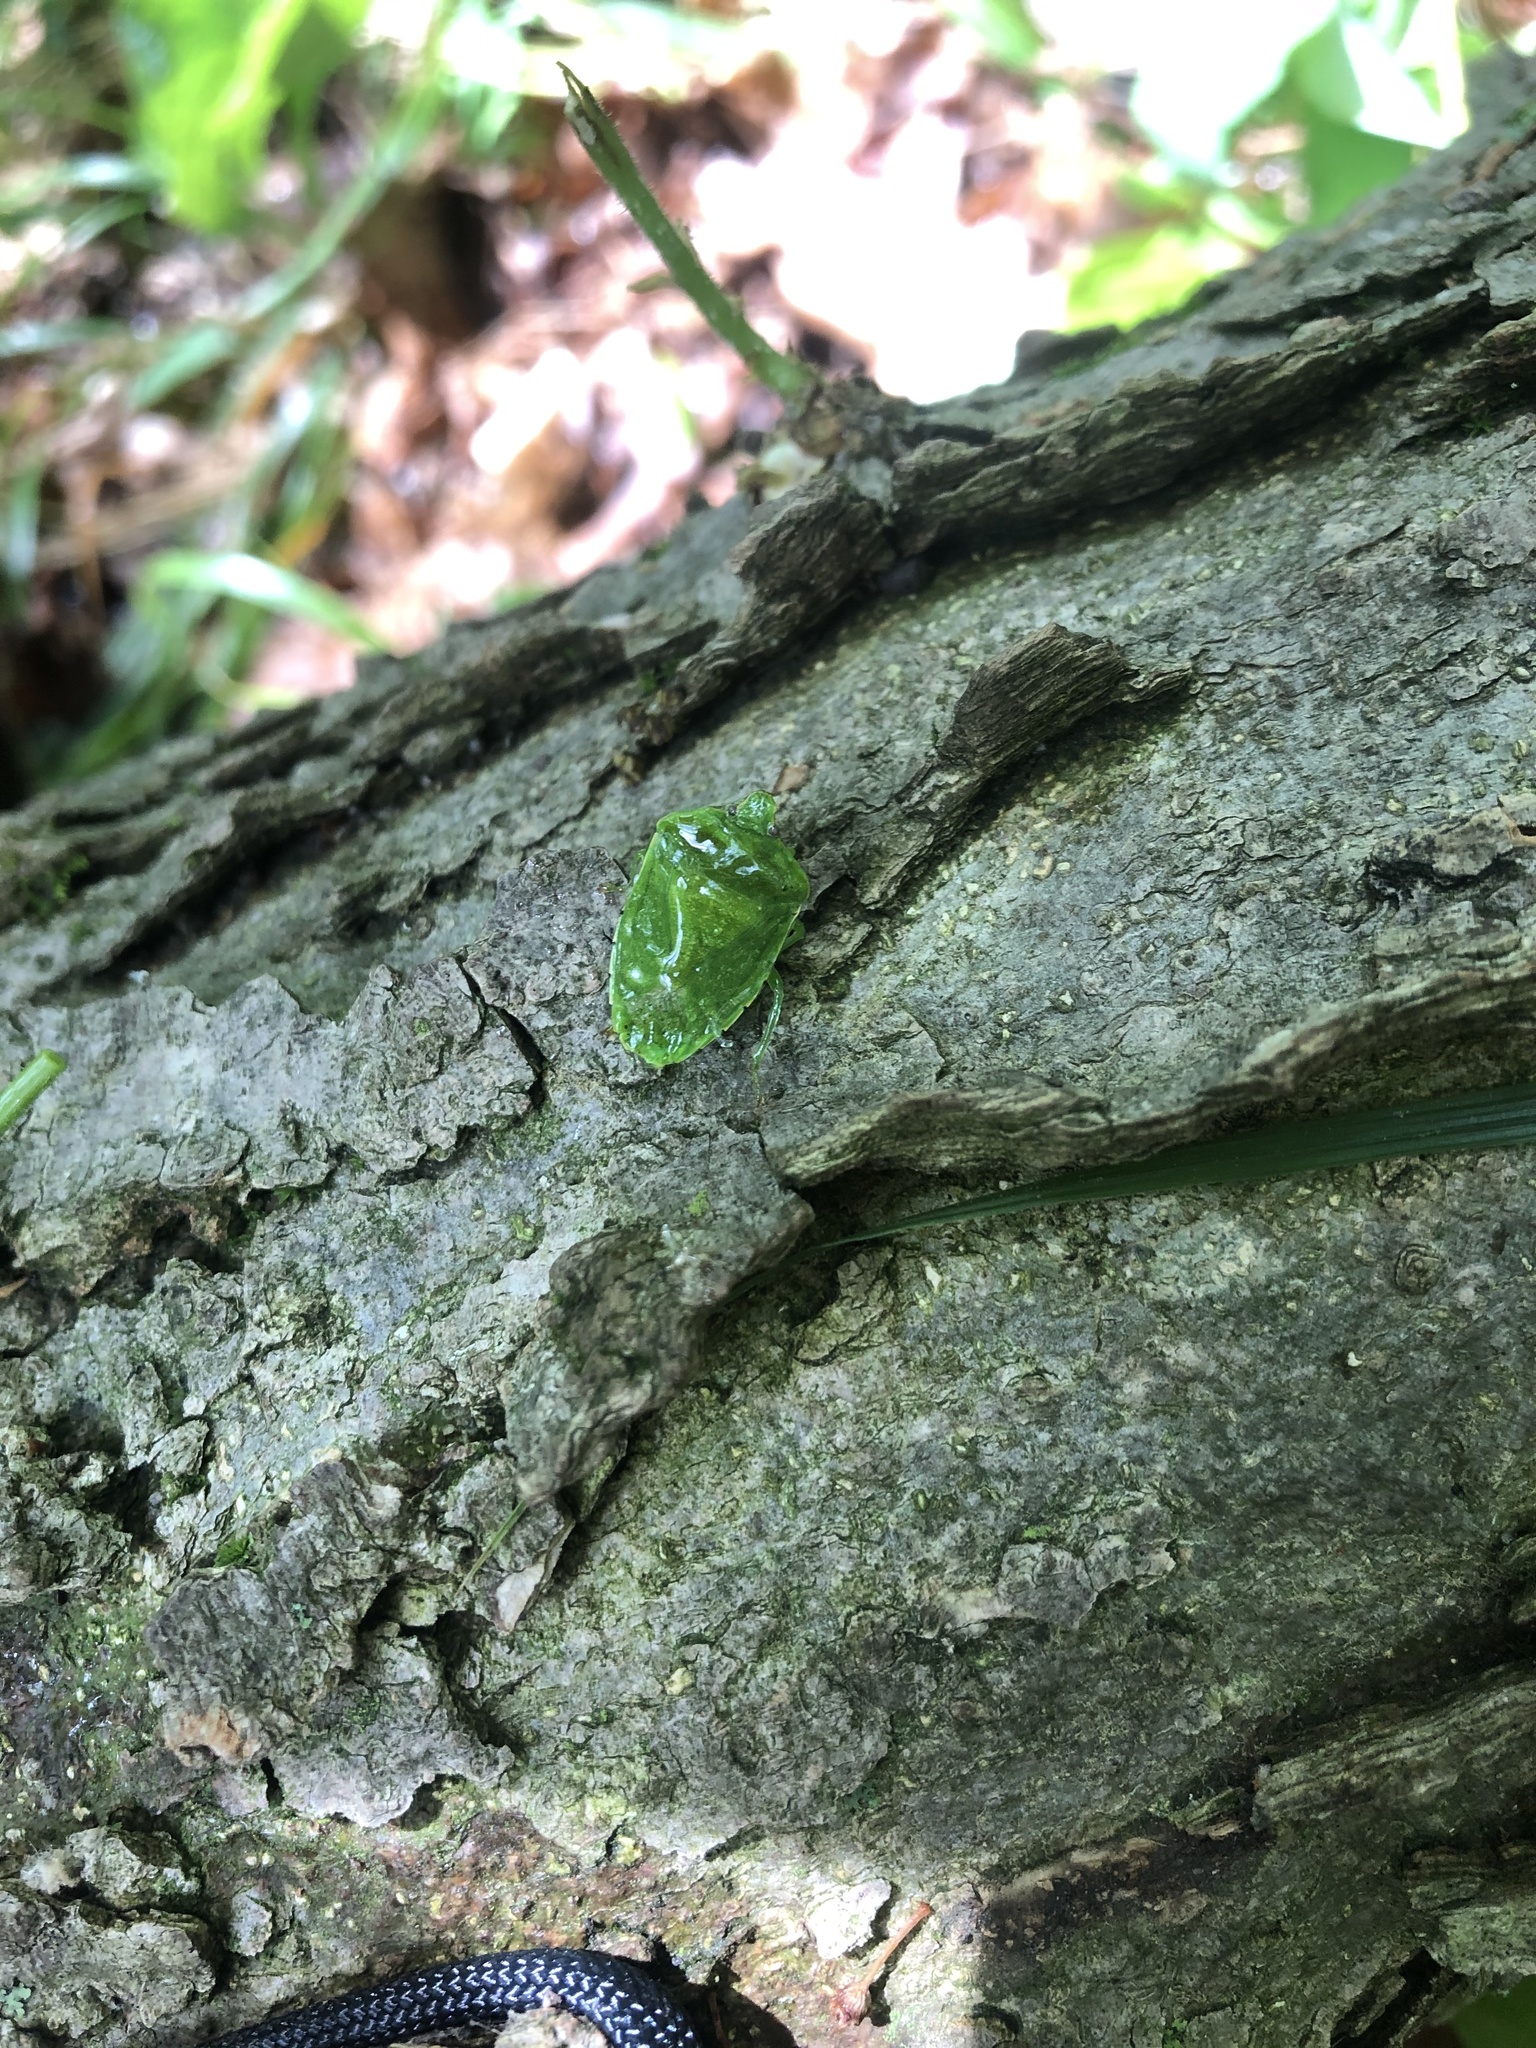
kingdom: Animalia
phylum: Arthropoda
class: Insecta
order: Hemiptera
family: Pentatomidae
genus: Chinavia
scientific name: Chinavia hilaris
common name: Green stink bug
